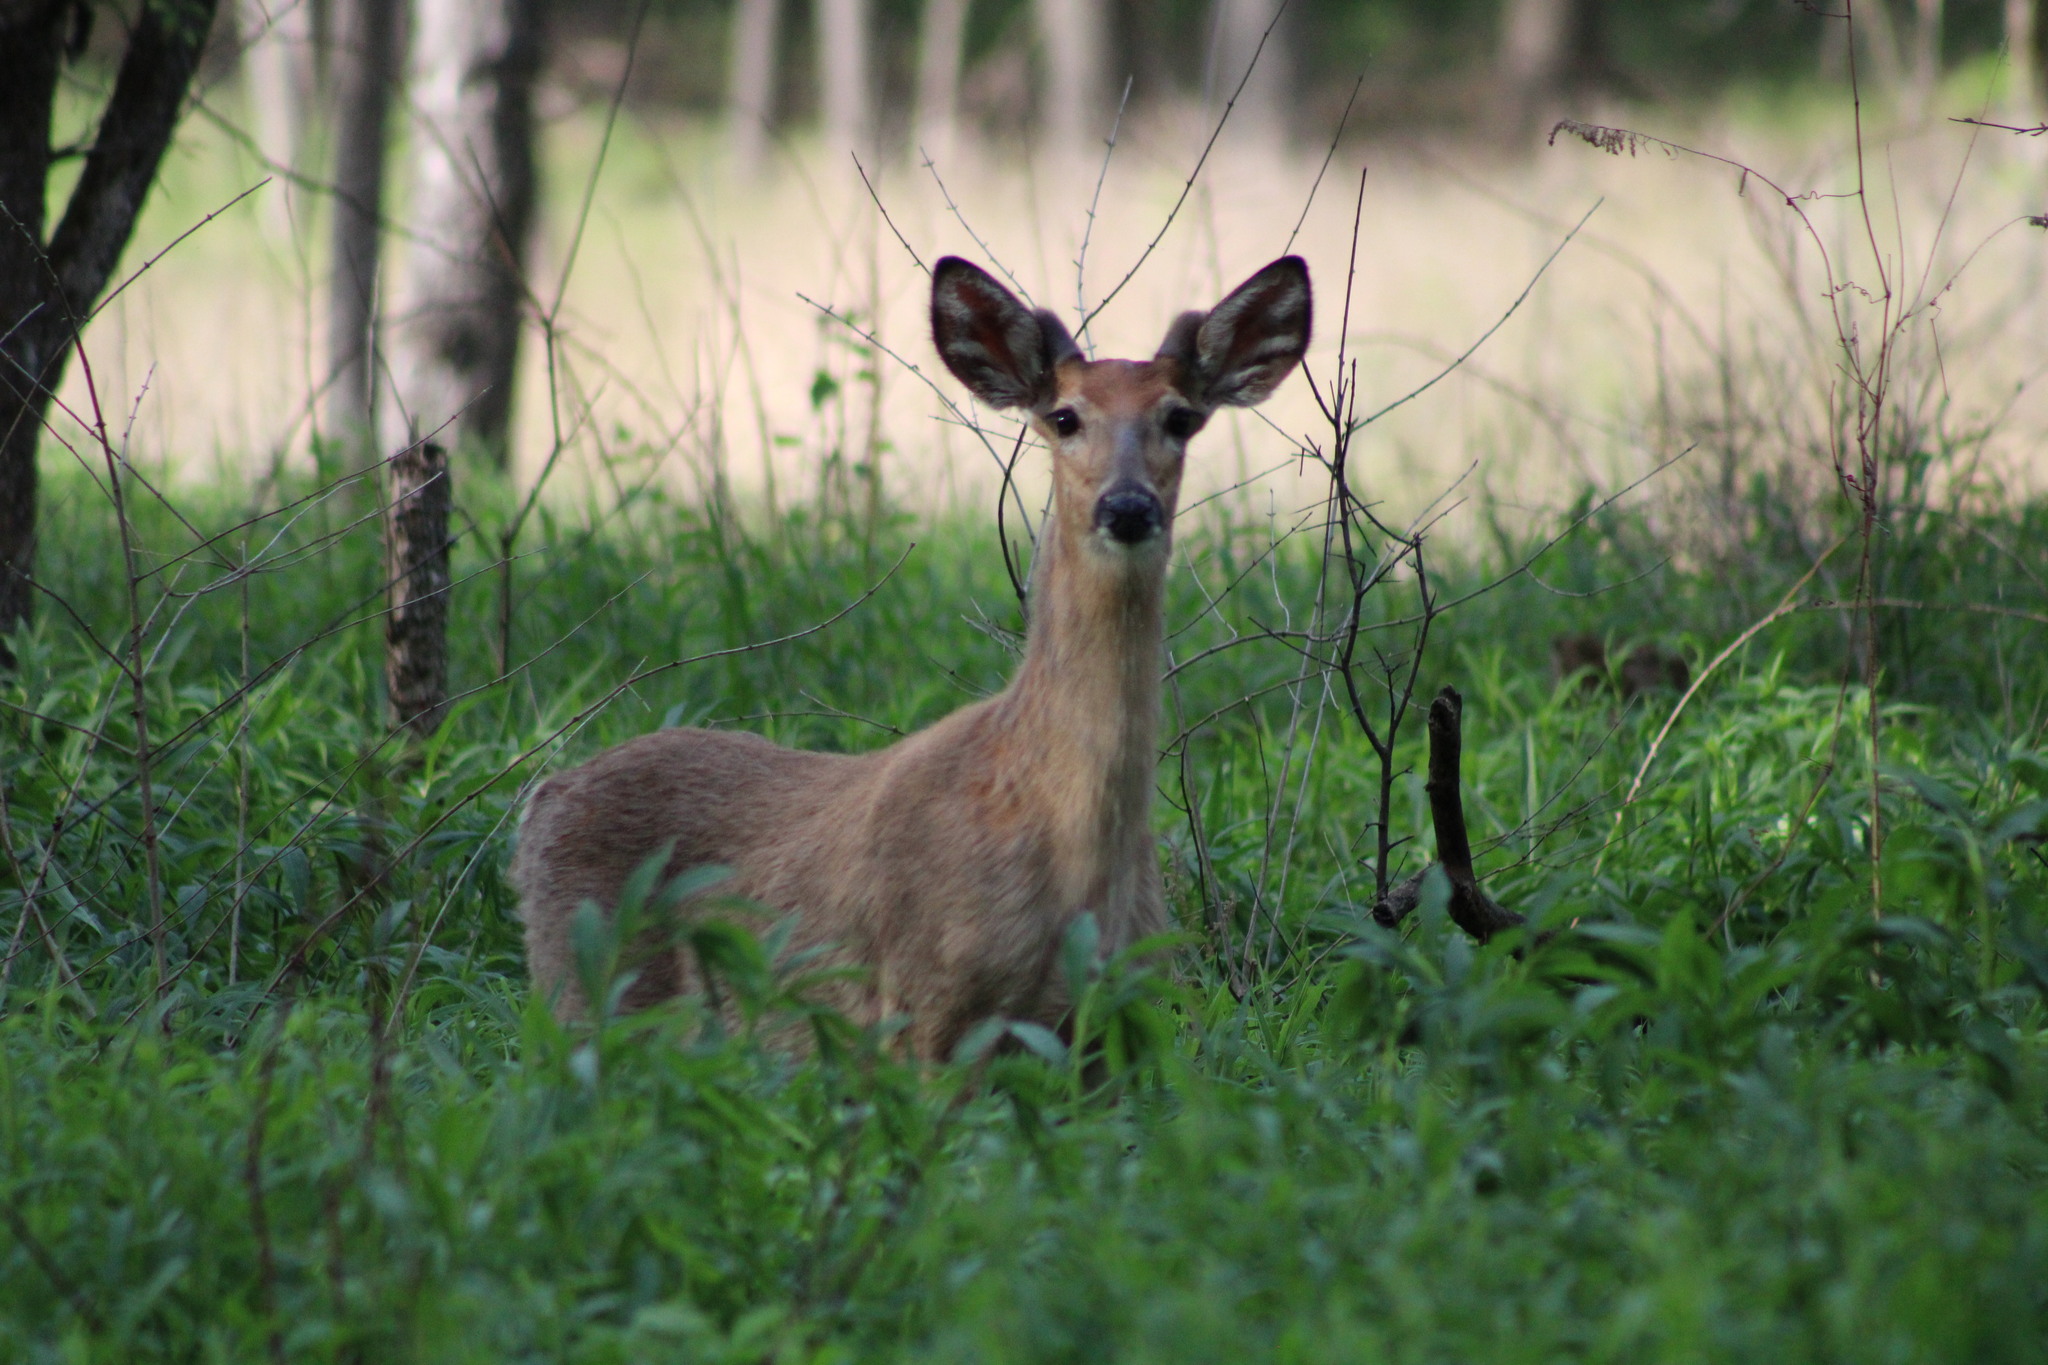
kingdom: Animalia
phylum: Chordata
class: Mammalia
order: Artiodactyla
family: Cervidae
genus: Odocoileus
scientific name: Odocoileus virginianus
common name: White-tailed deer
